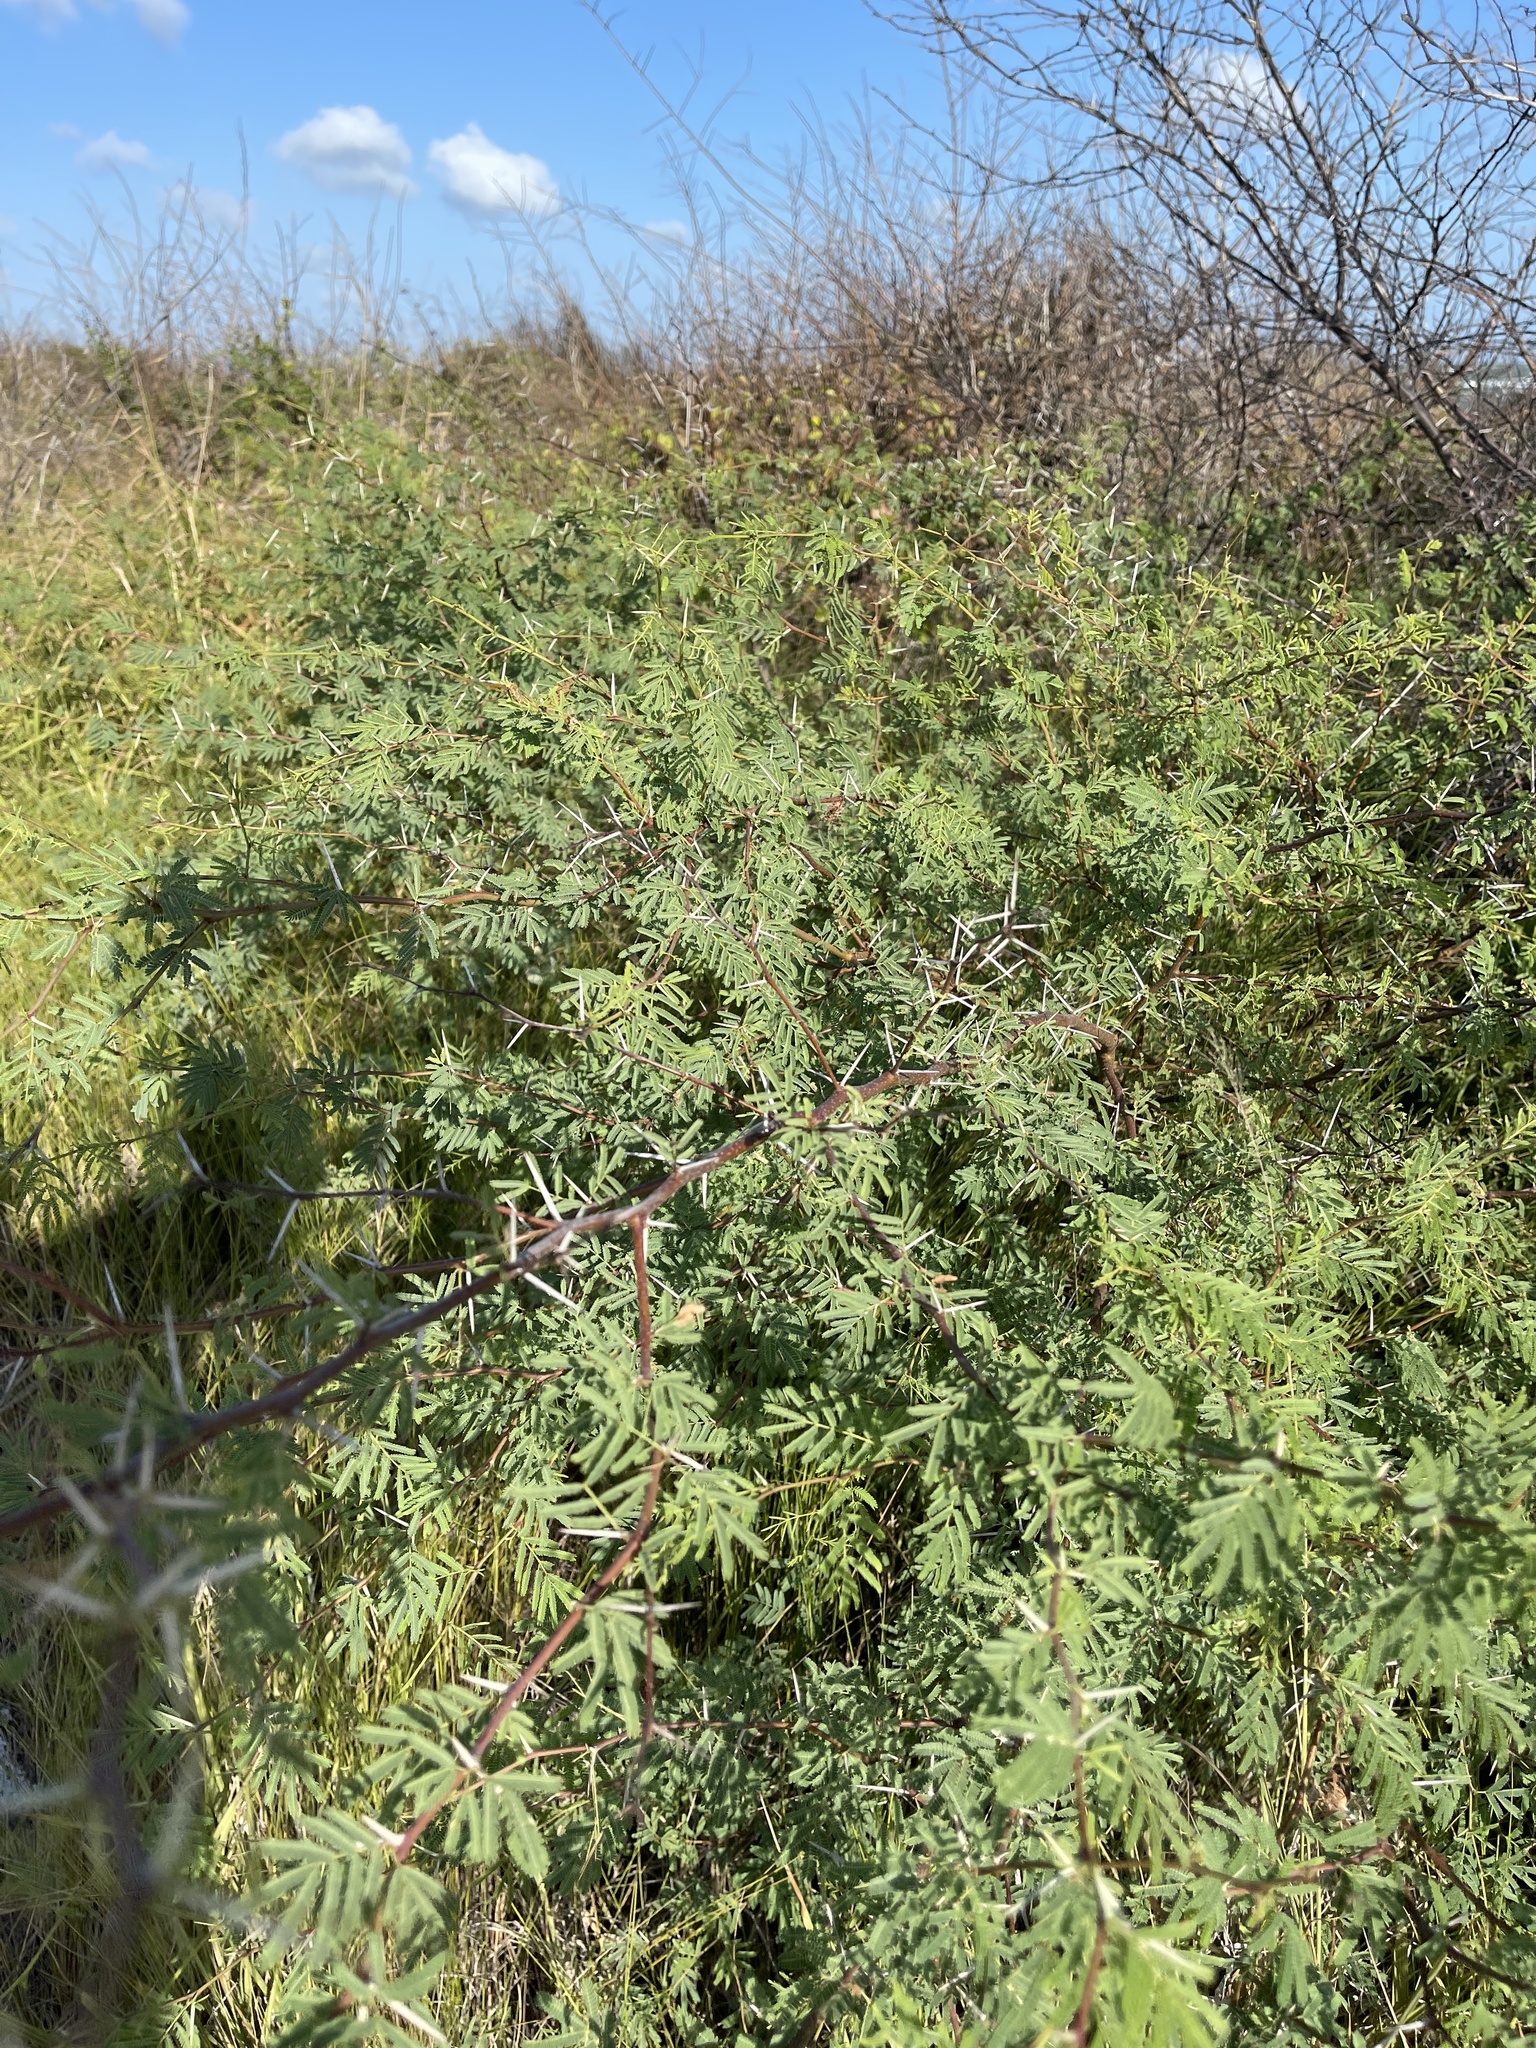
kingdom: Plantae
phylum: Tracheophyta
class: Magnoliopsida
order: Fabales
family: Fabaceae
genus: Vachellia
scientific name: Vachellia farnesiana
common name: Sweet acacia
